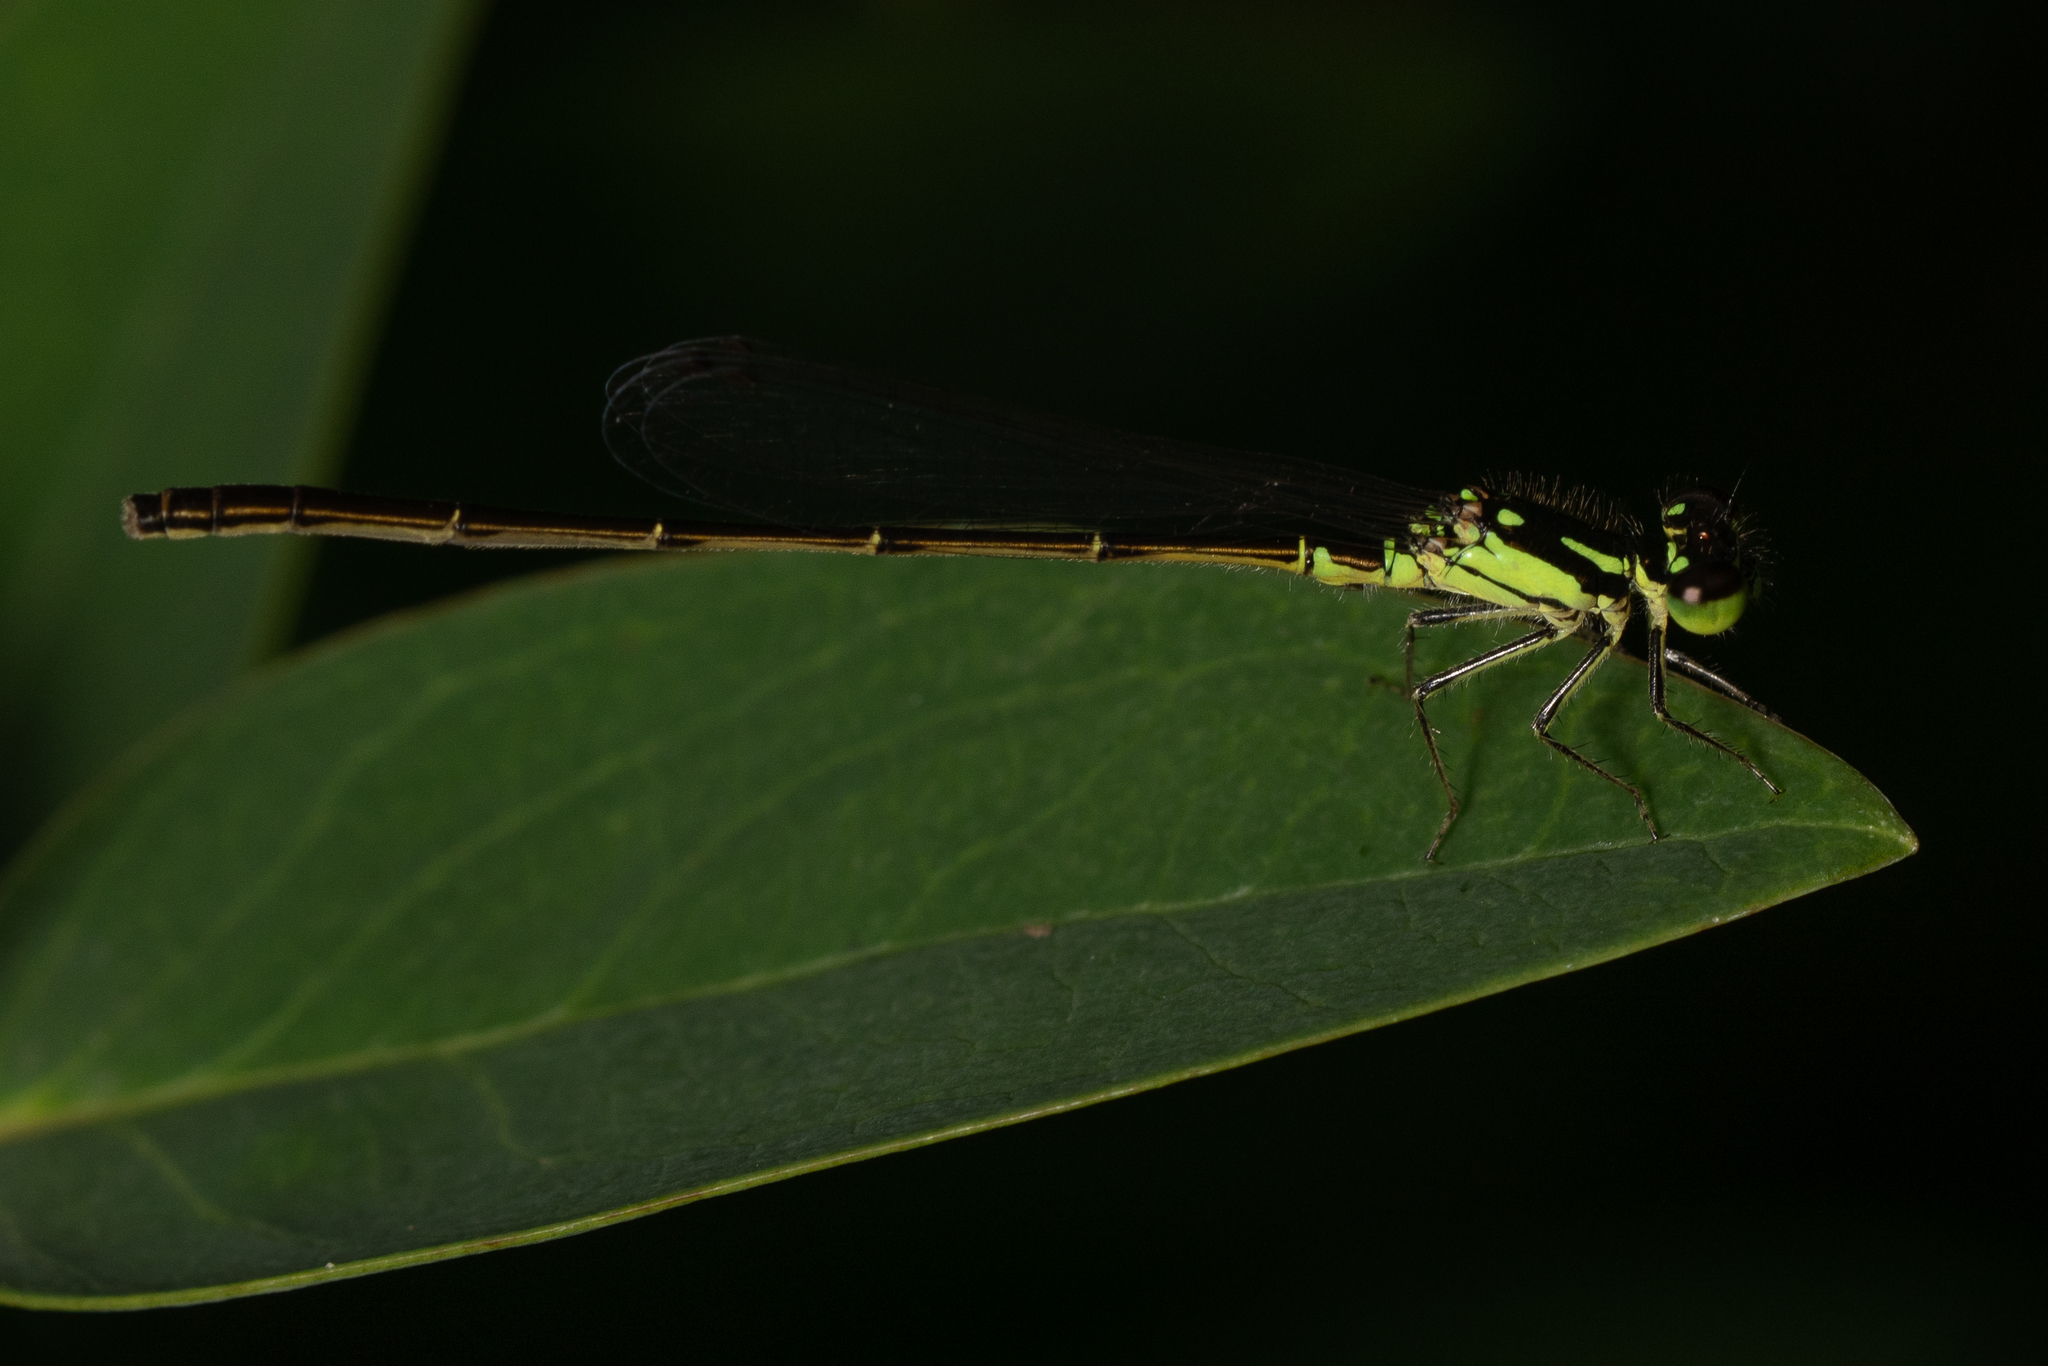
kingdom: Animalia
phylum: Arthropoda
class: Insecta
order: Odonata
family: Coenagrionidae
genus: Ischnura
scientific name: Ischnura posita
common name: Fragile forktail
